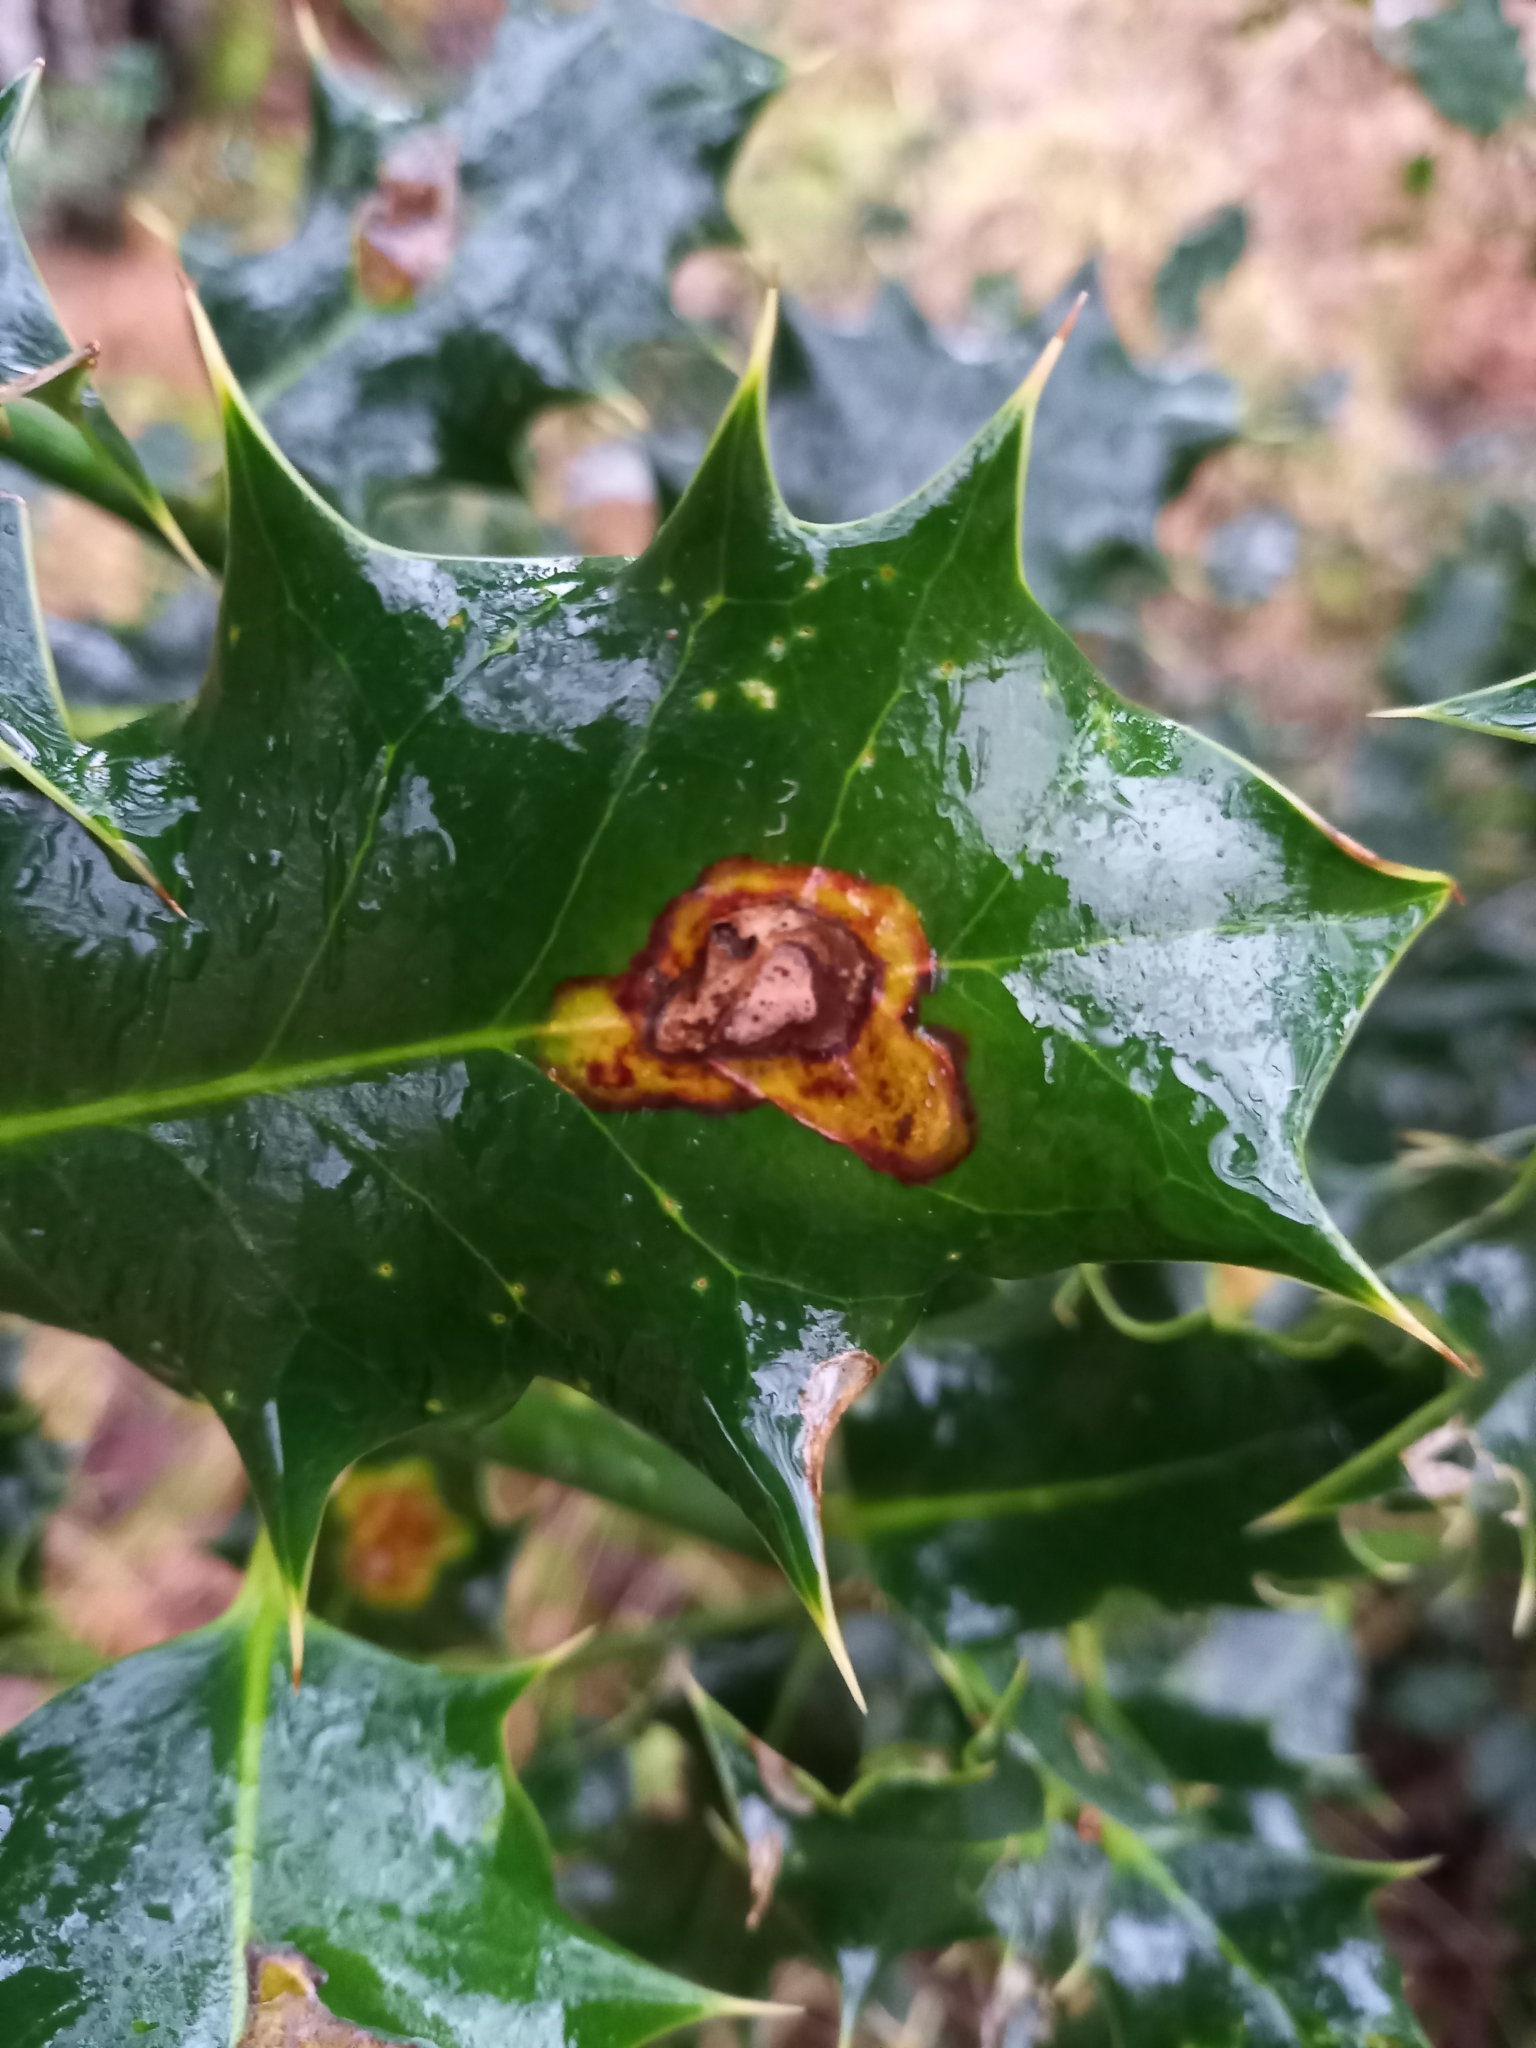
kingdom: Animalia
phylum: Arthropoda
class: Insecta
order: Diptera
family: Agromyzidae
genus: Phytomyza
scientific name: Phytomyza ilicis
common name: Holly leafminer
